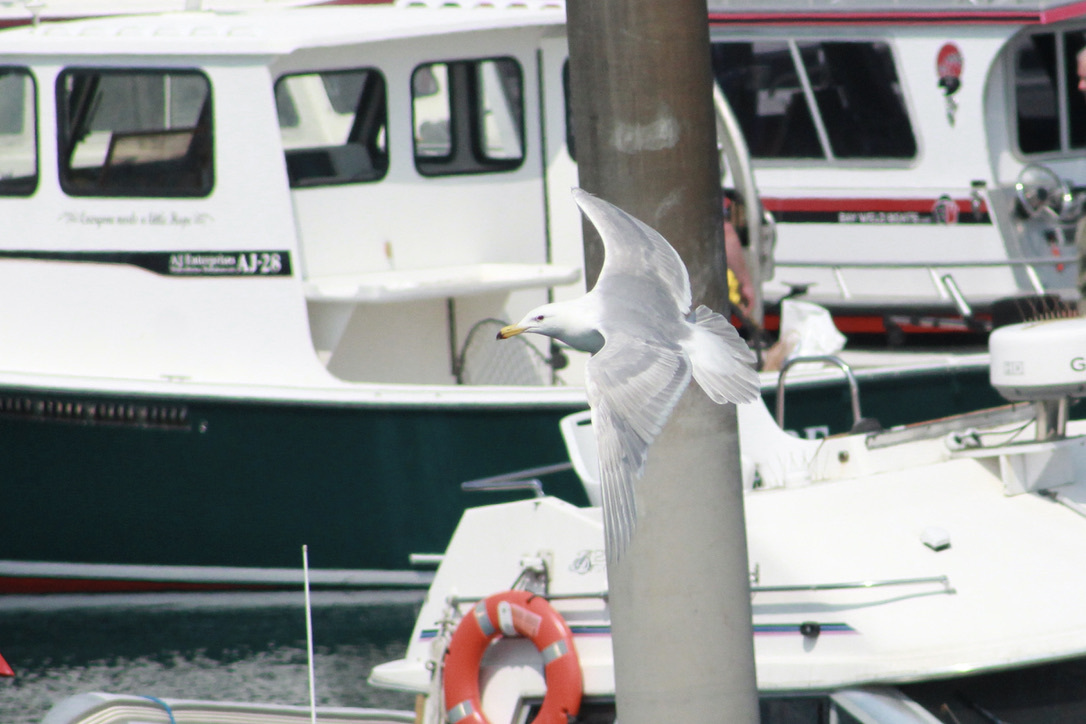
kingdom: Animalia
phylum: Chordata
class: Aves
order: Charadriiformes
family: Laridae
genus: Larus
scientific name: Larus glaucescens
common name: Glaucous-winged gull
